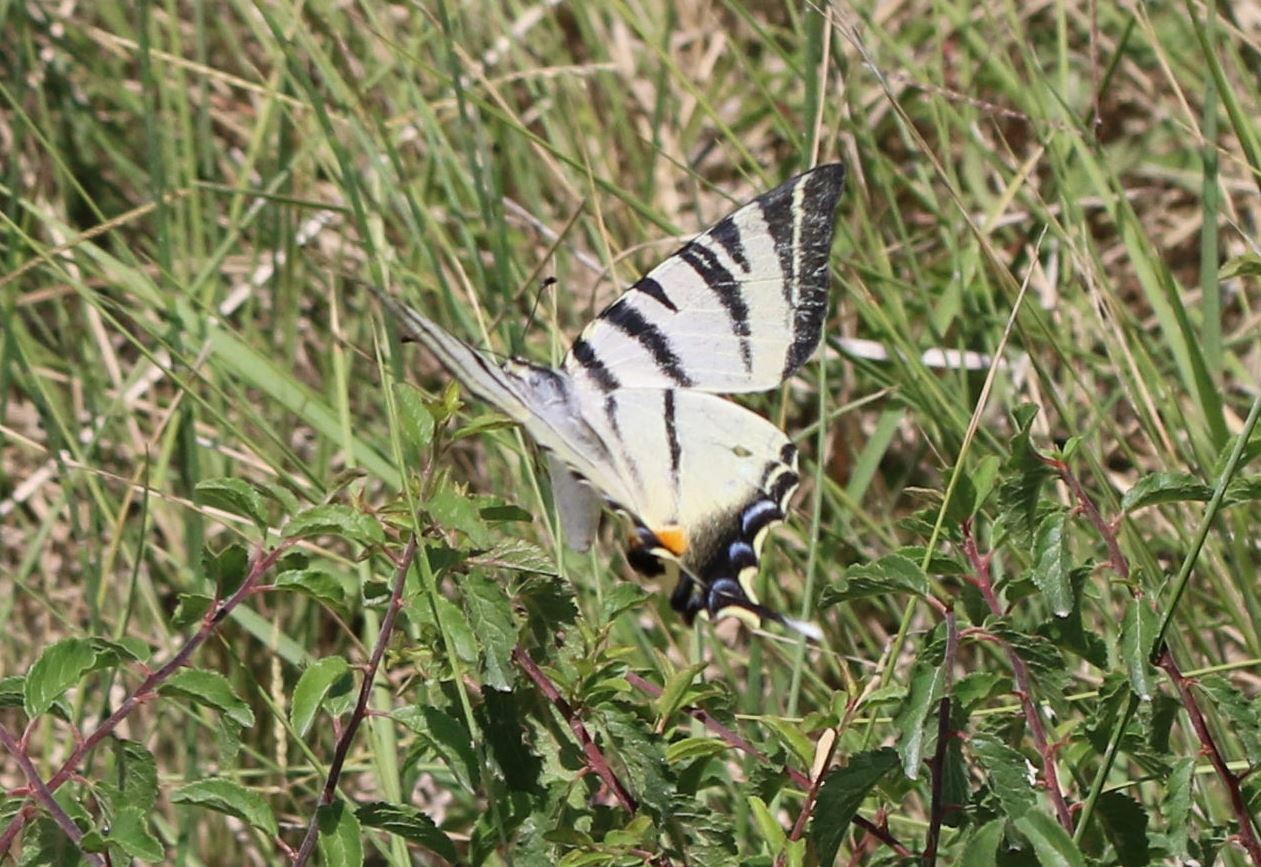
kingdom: Animalia
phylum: Arthropoda
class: Insecta
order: Lepidoptera
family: Papilionidae
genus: Iphiclides
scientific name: Iphiclides podalirius
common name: Scarce swallowtail
